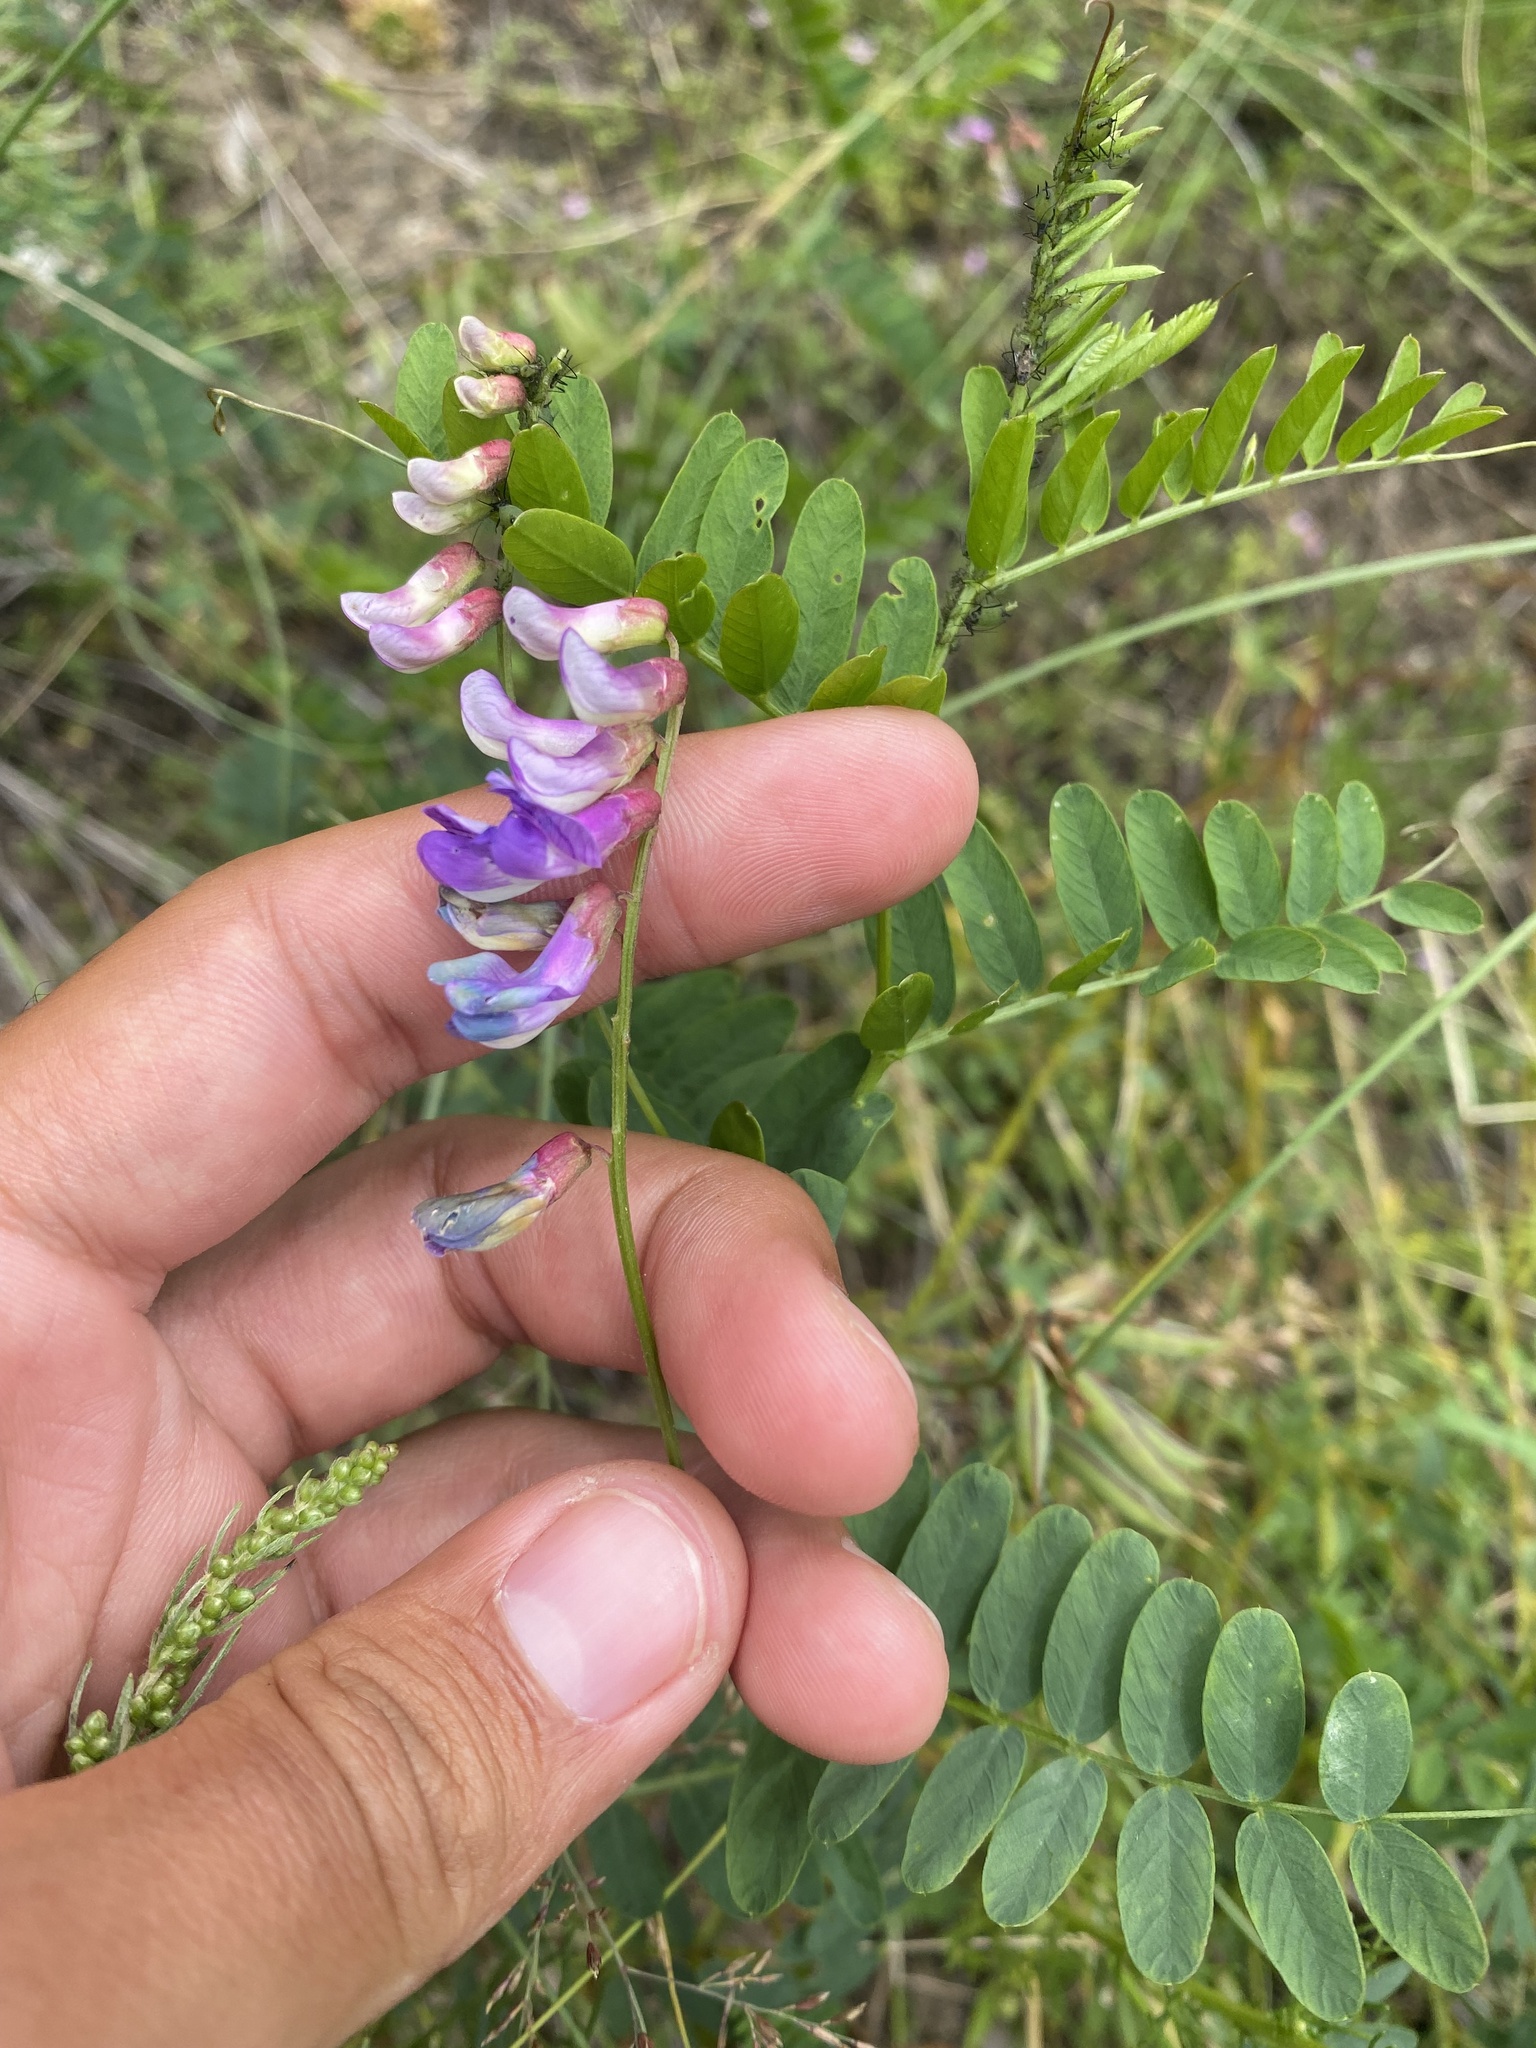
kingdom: Plantae
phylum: Tracheophyta
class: Magnoliopsida
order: Fabales
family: Fabaceae
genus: Vicia
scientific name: Vicia multicaulis
